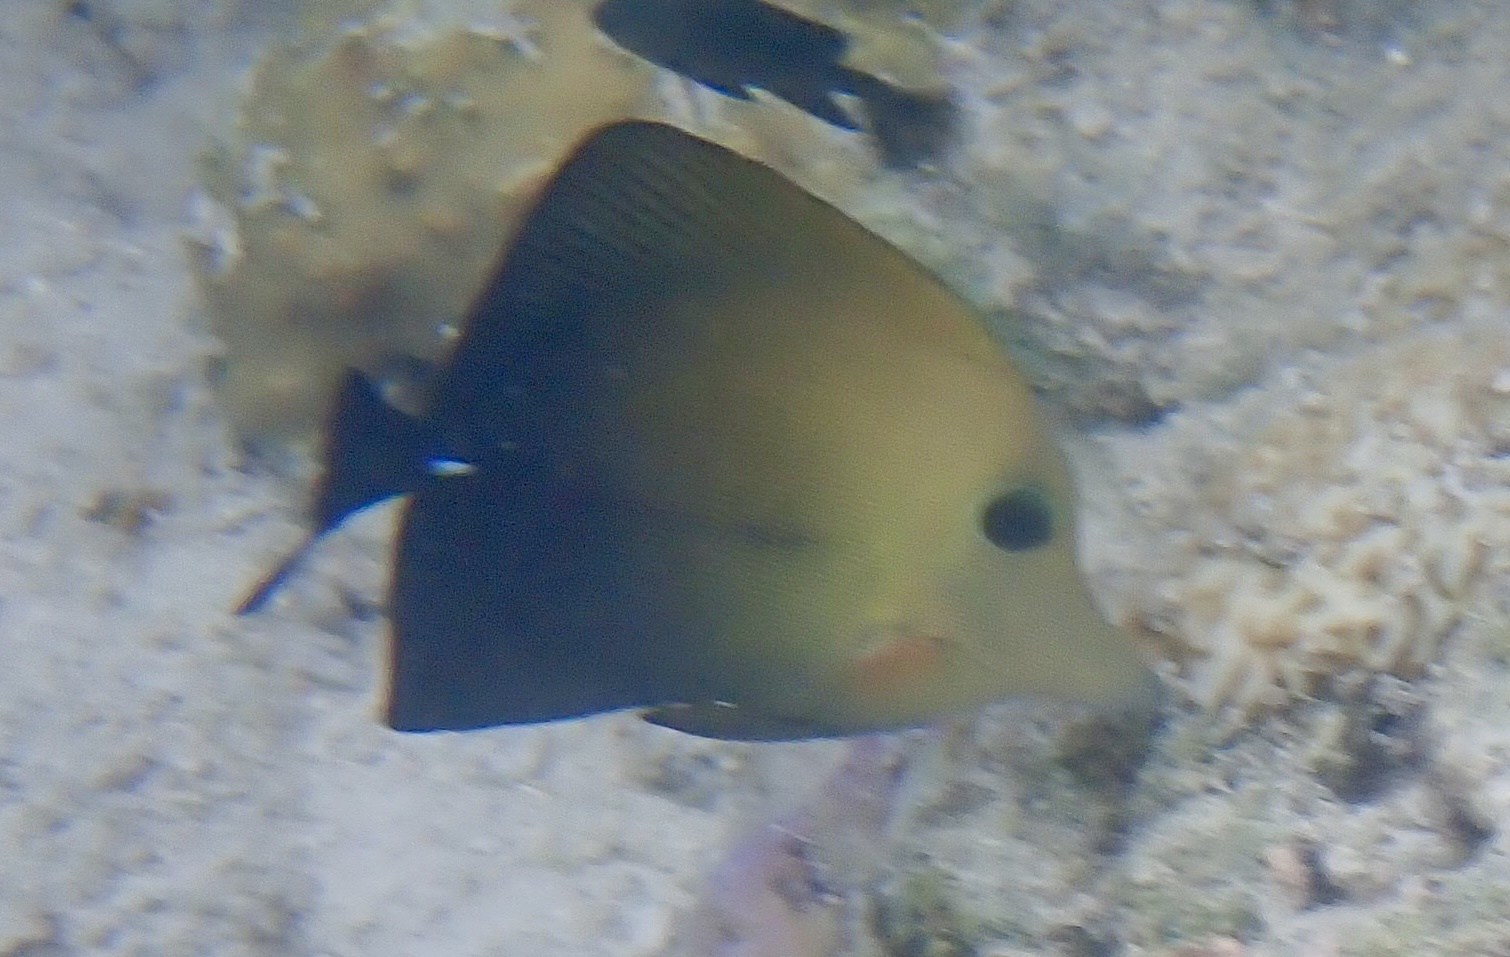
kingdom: Animalia
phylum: Chordata
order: Perciformes
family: Acanthuridae
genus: Zebrasoma
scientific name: Zebrasoma scopas
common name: Twotone tang
